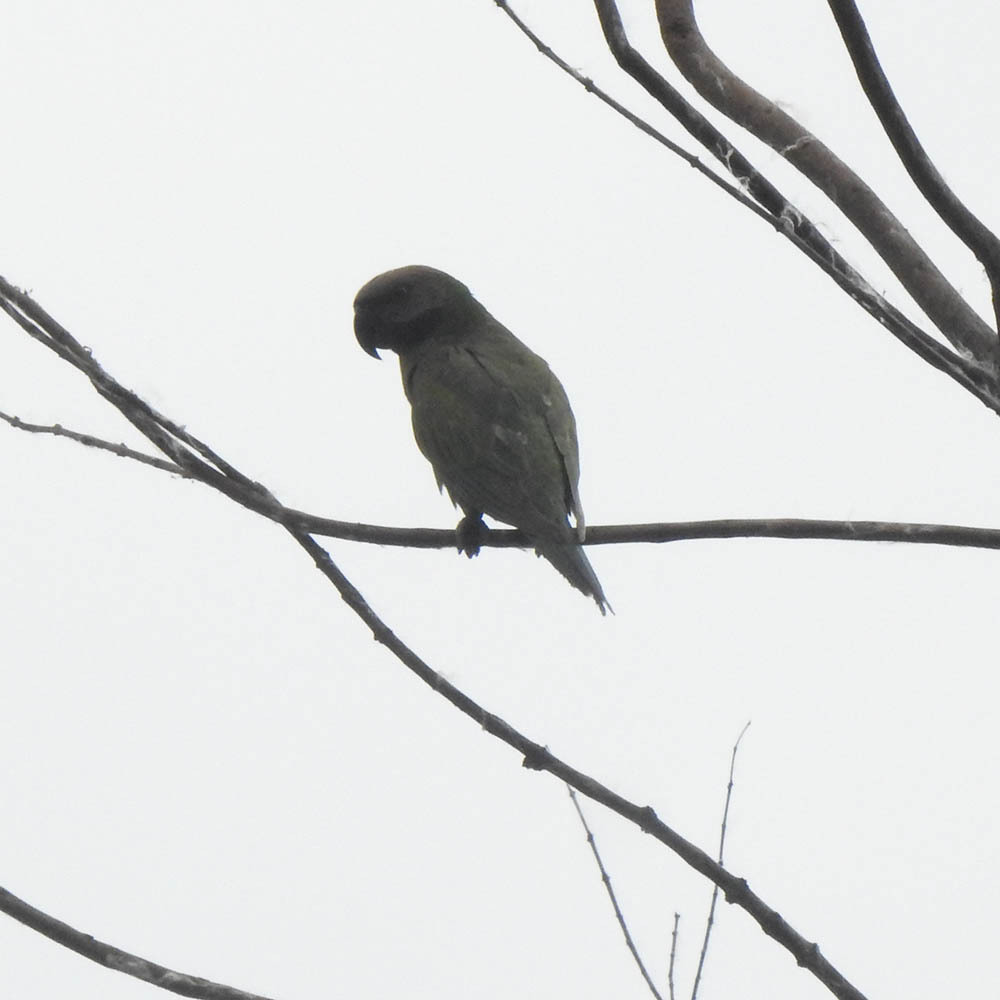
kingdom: Animalia
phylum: Chordata
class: Aves
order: Psittaciformes
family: Psittacidae
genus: Psittacula
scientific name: Psittacula alexandri
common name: Red-breasted parakeet
